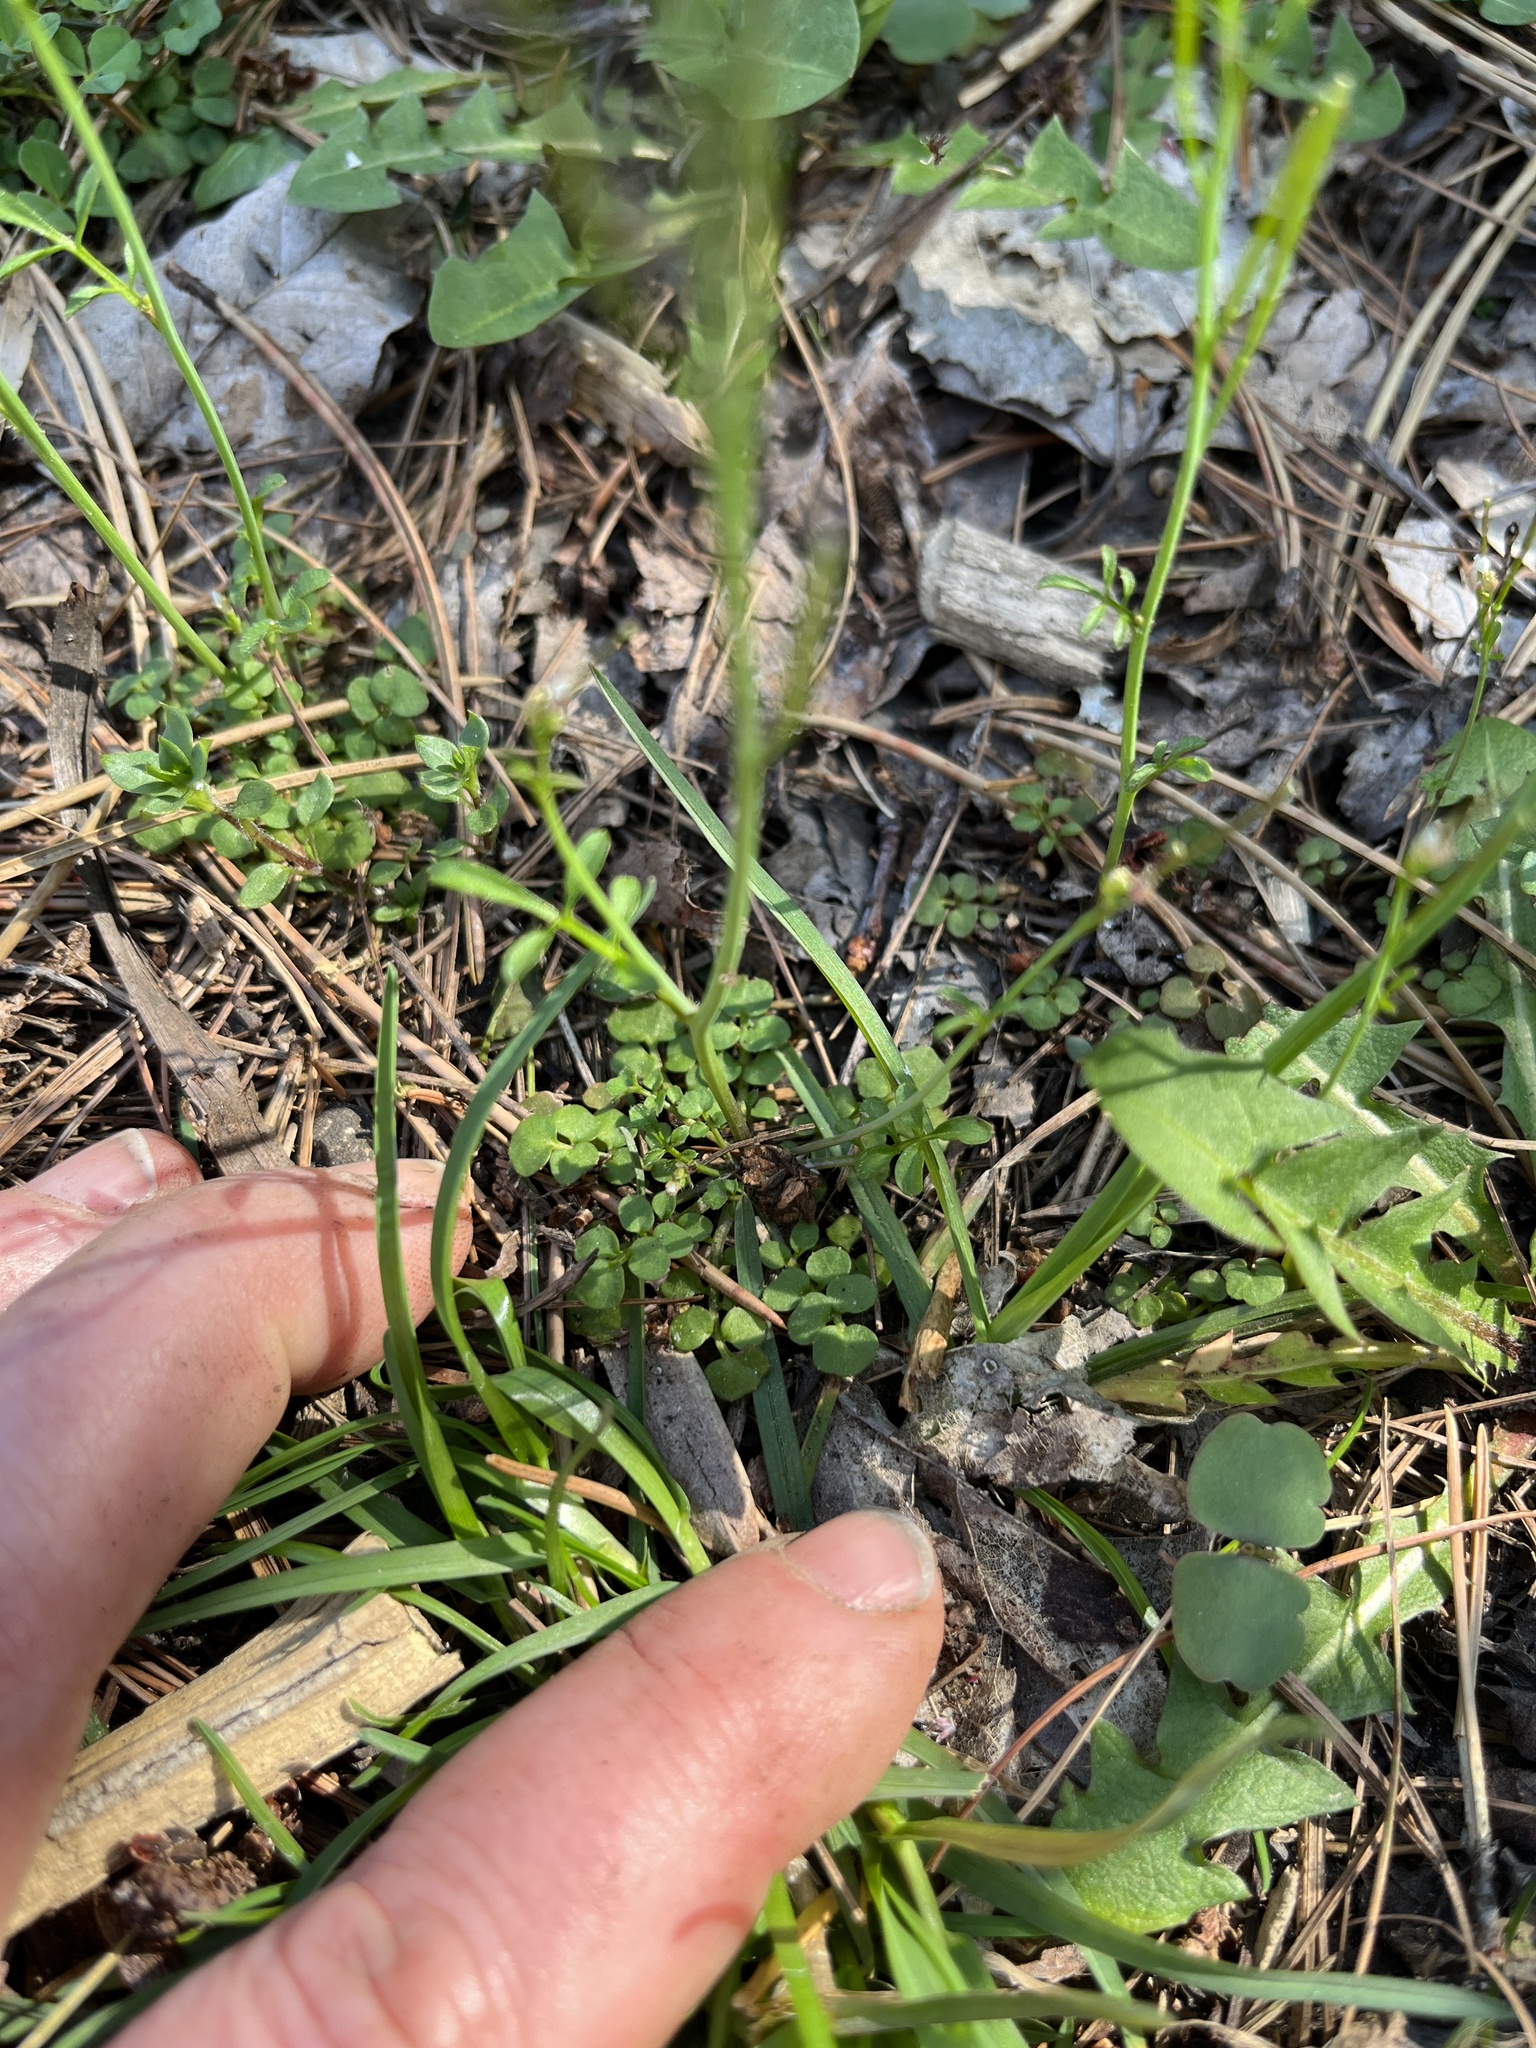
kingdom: Plantae
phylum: Tracheophyta
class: Magnoliopsida
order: Brassicales
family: Brassicaceae
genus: Cardamine
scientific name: Cardamine hirsuta
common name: Hairy bittercress
